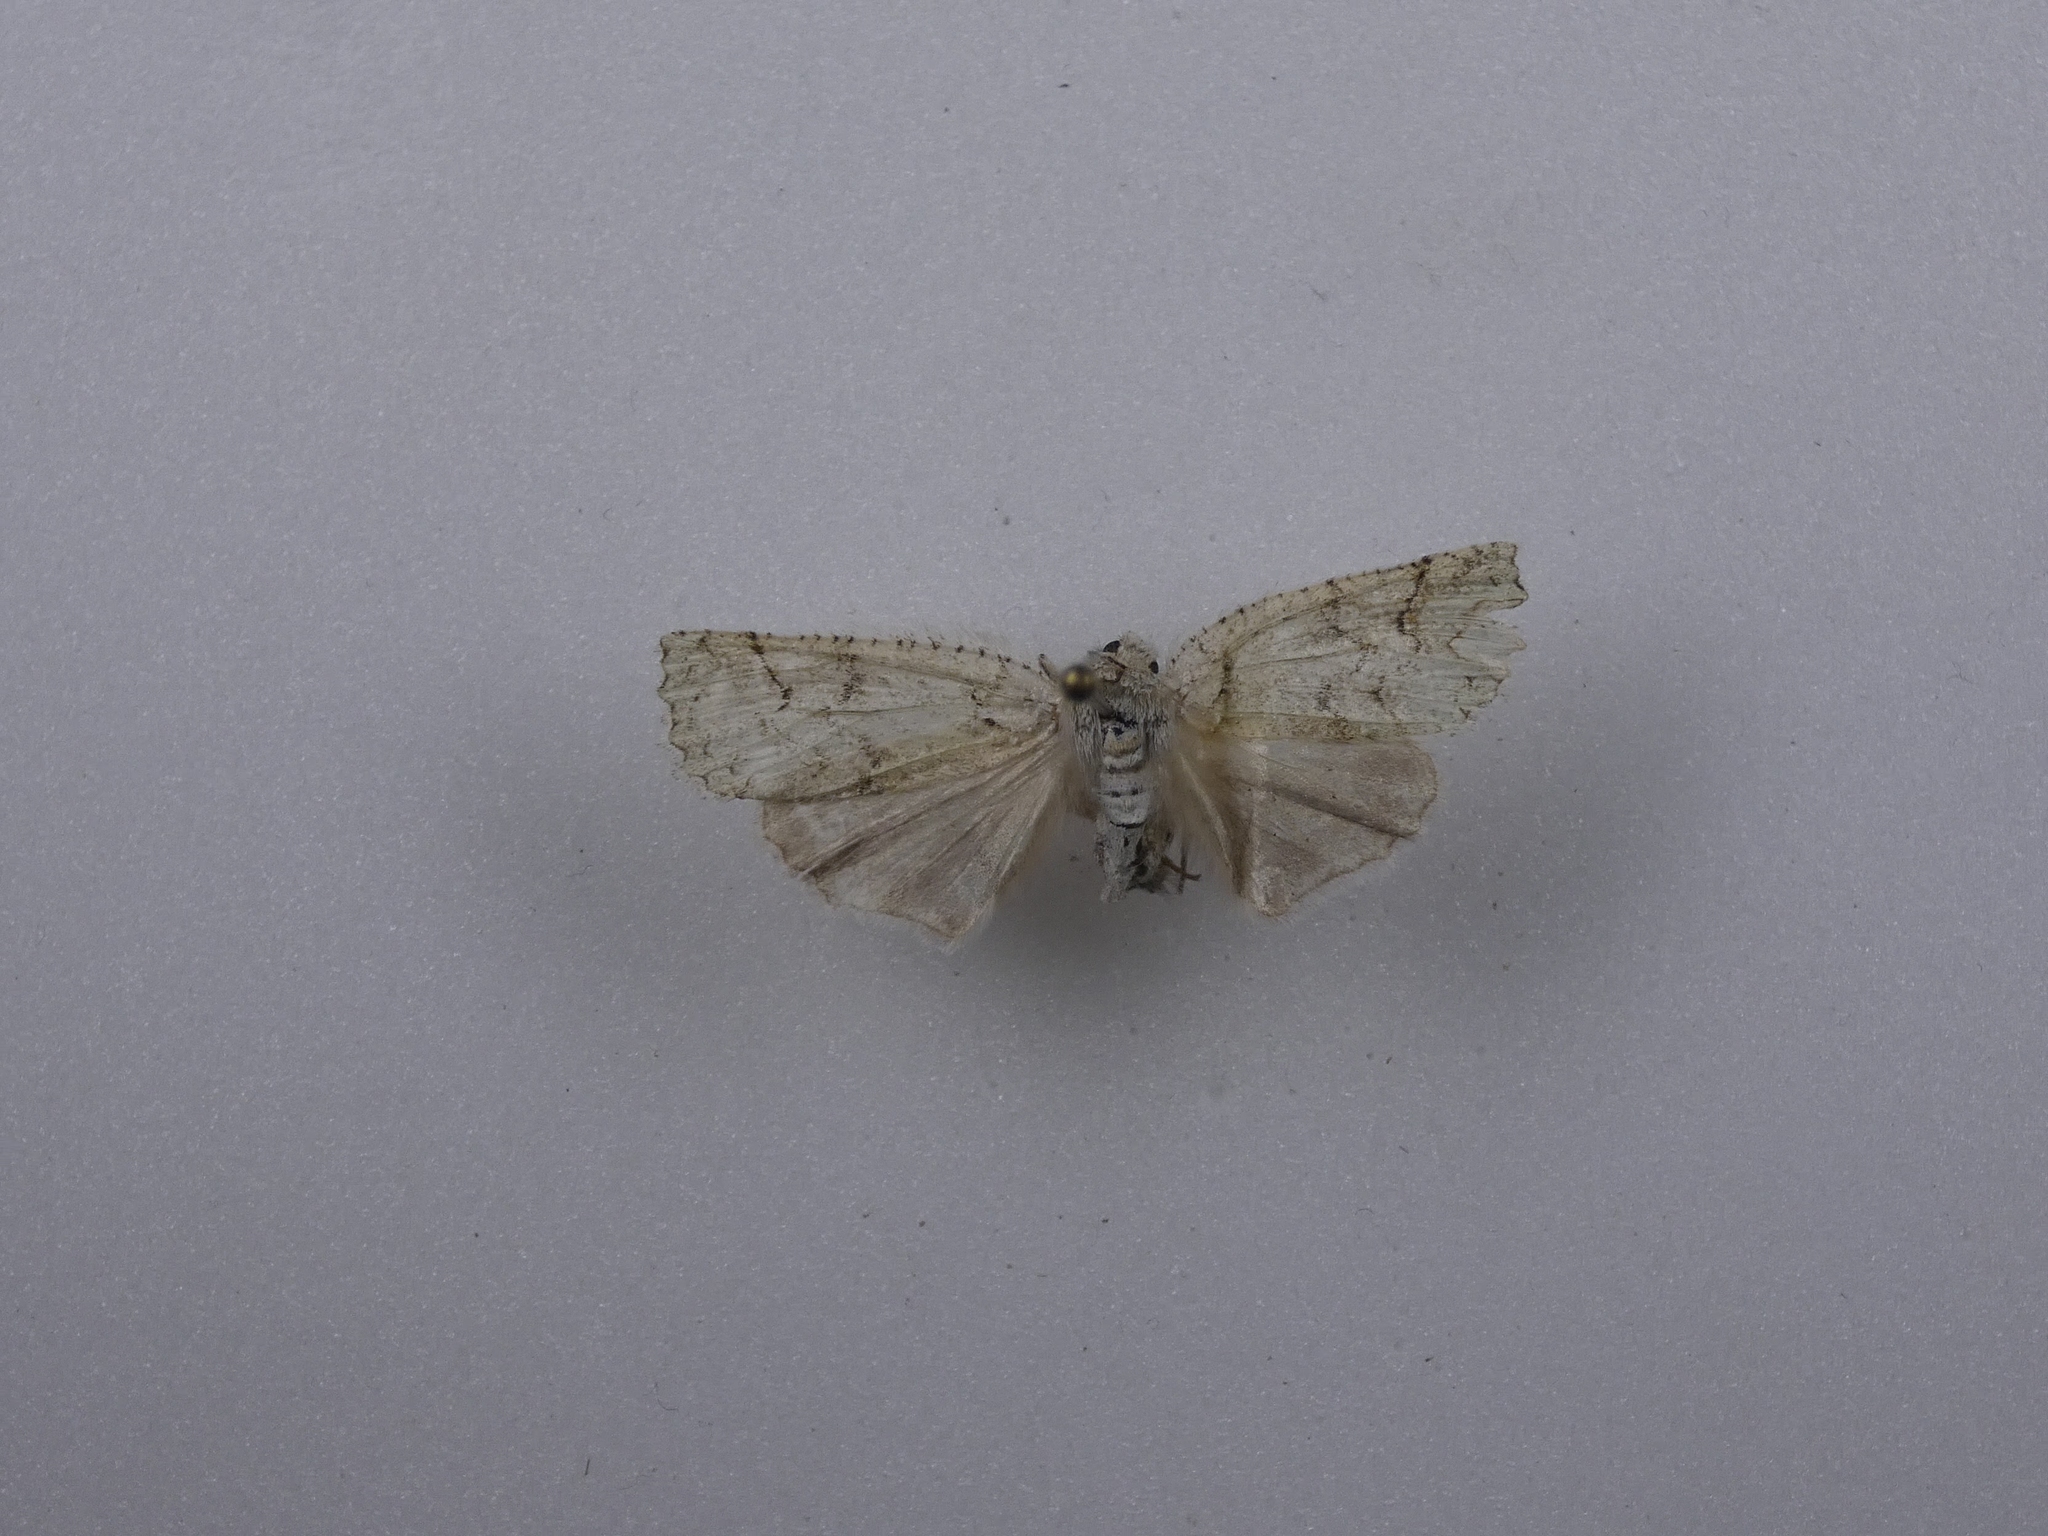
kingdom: Animalia
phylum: Arthropoda
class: Insecta
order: Lepidoptera
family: Geometridae
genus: Declana
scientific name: Declana floccosa
